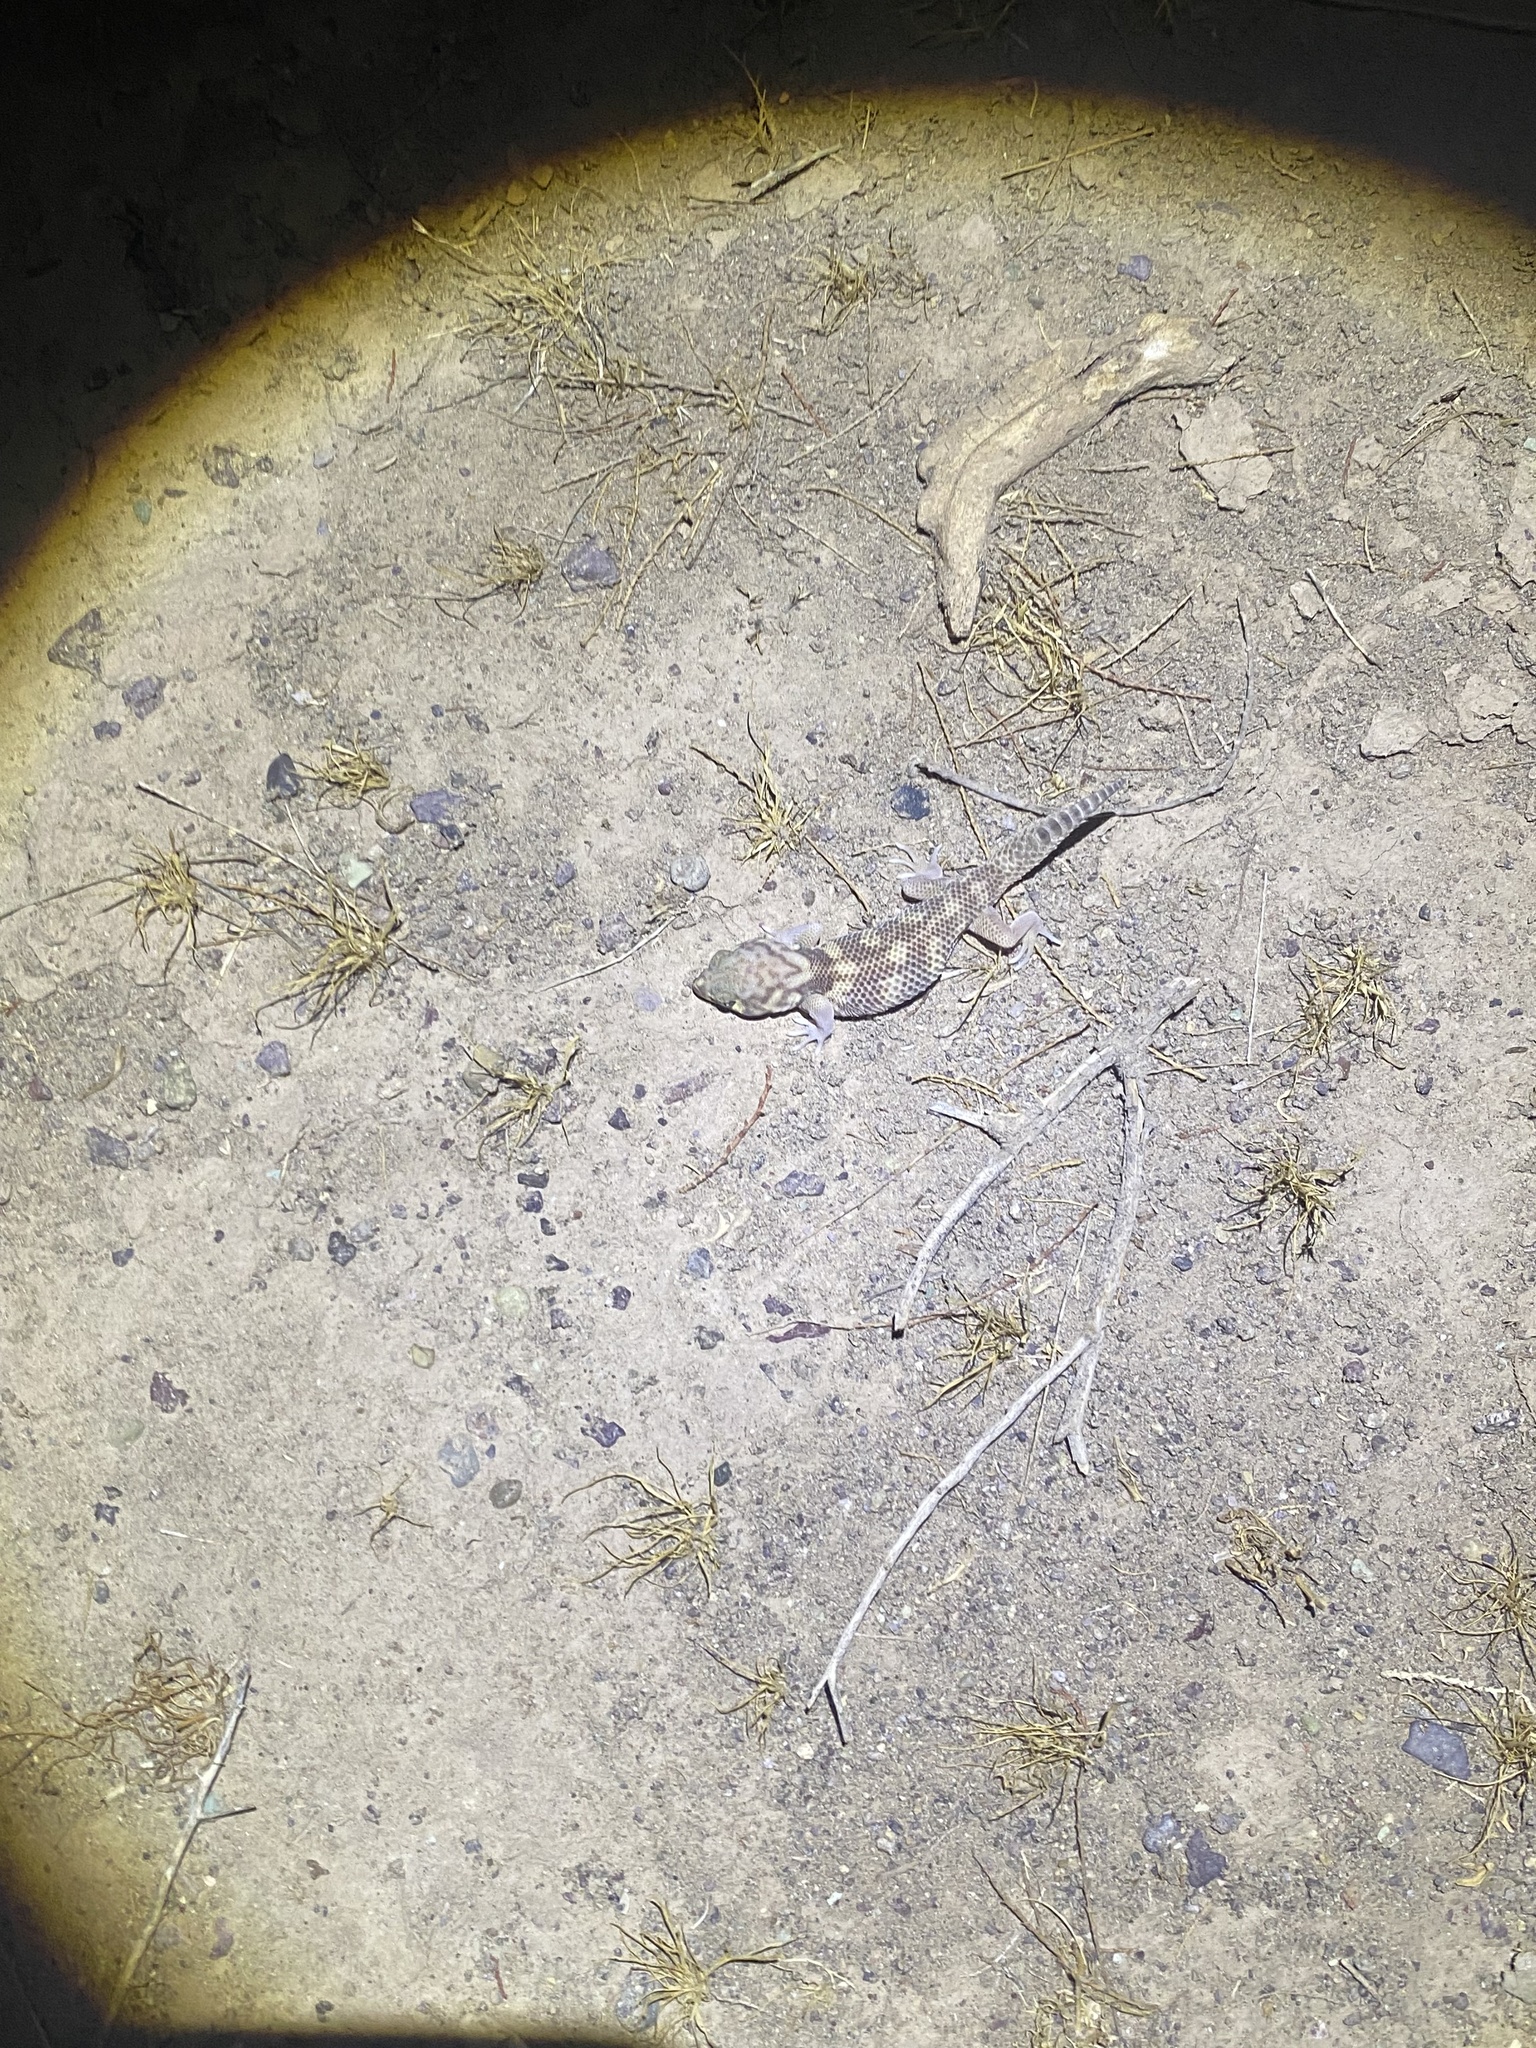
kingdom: Animalia
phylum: Chordata
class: Squamata
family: Sphaerodactylidae
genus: Teratoscincus
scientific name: Teratoscincus bedriagai
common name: Bedriaga's plate-tailed gecko
